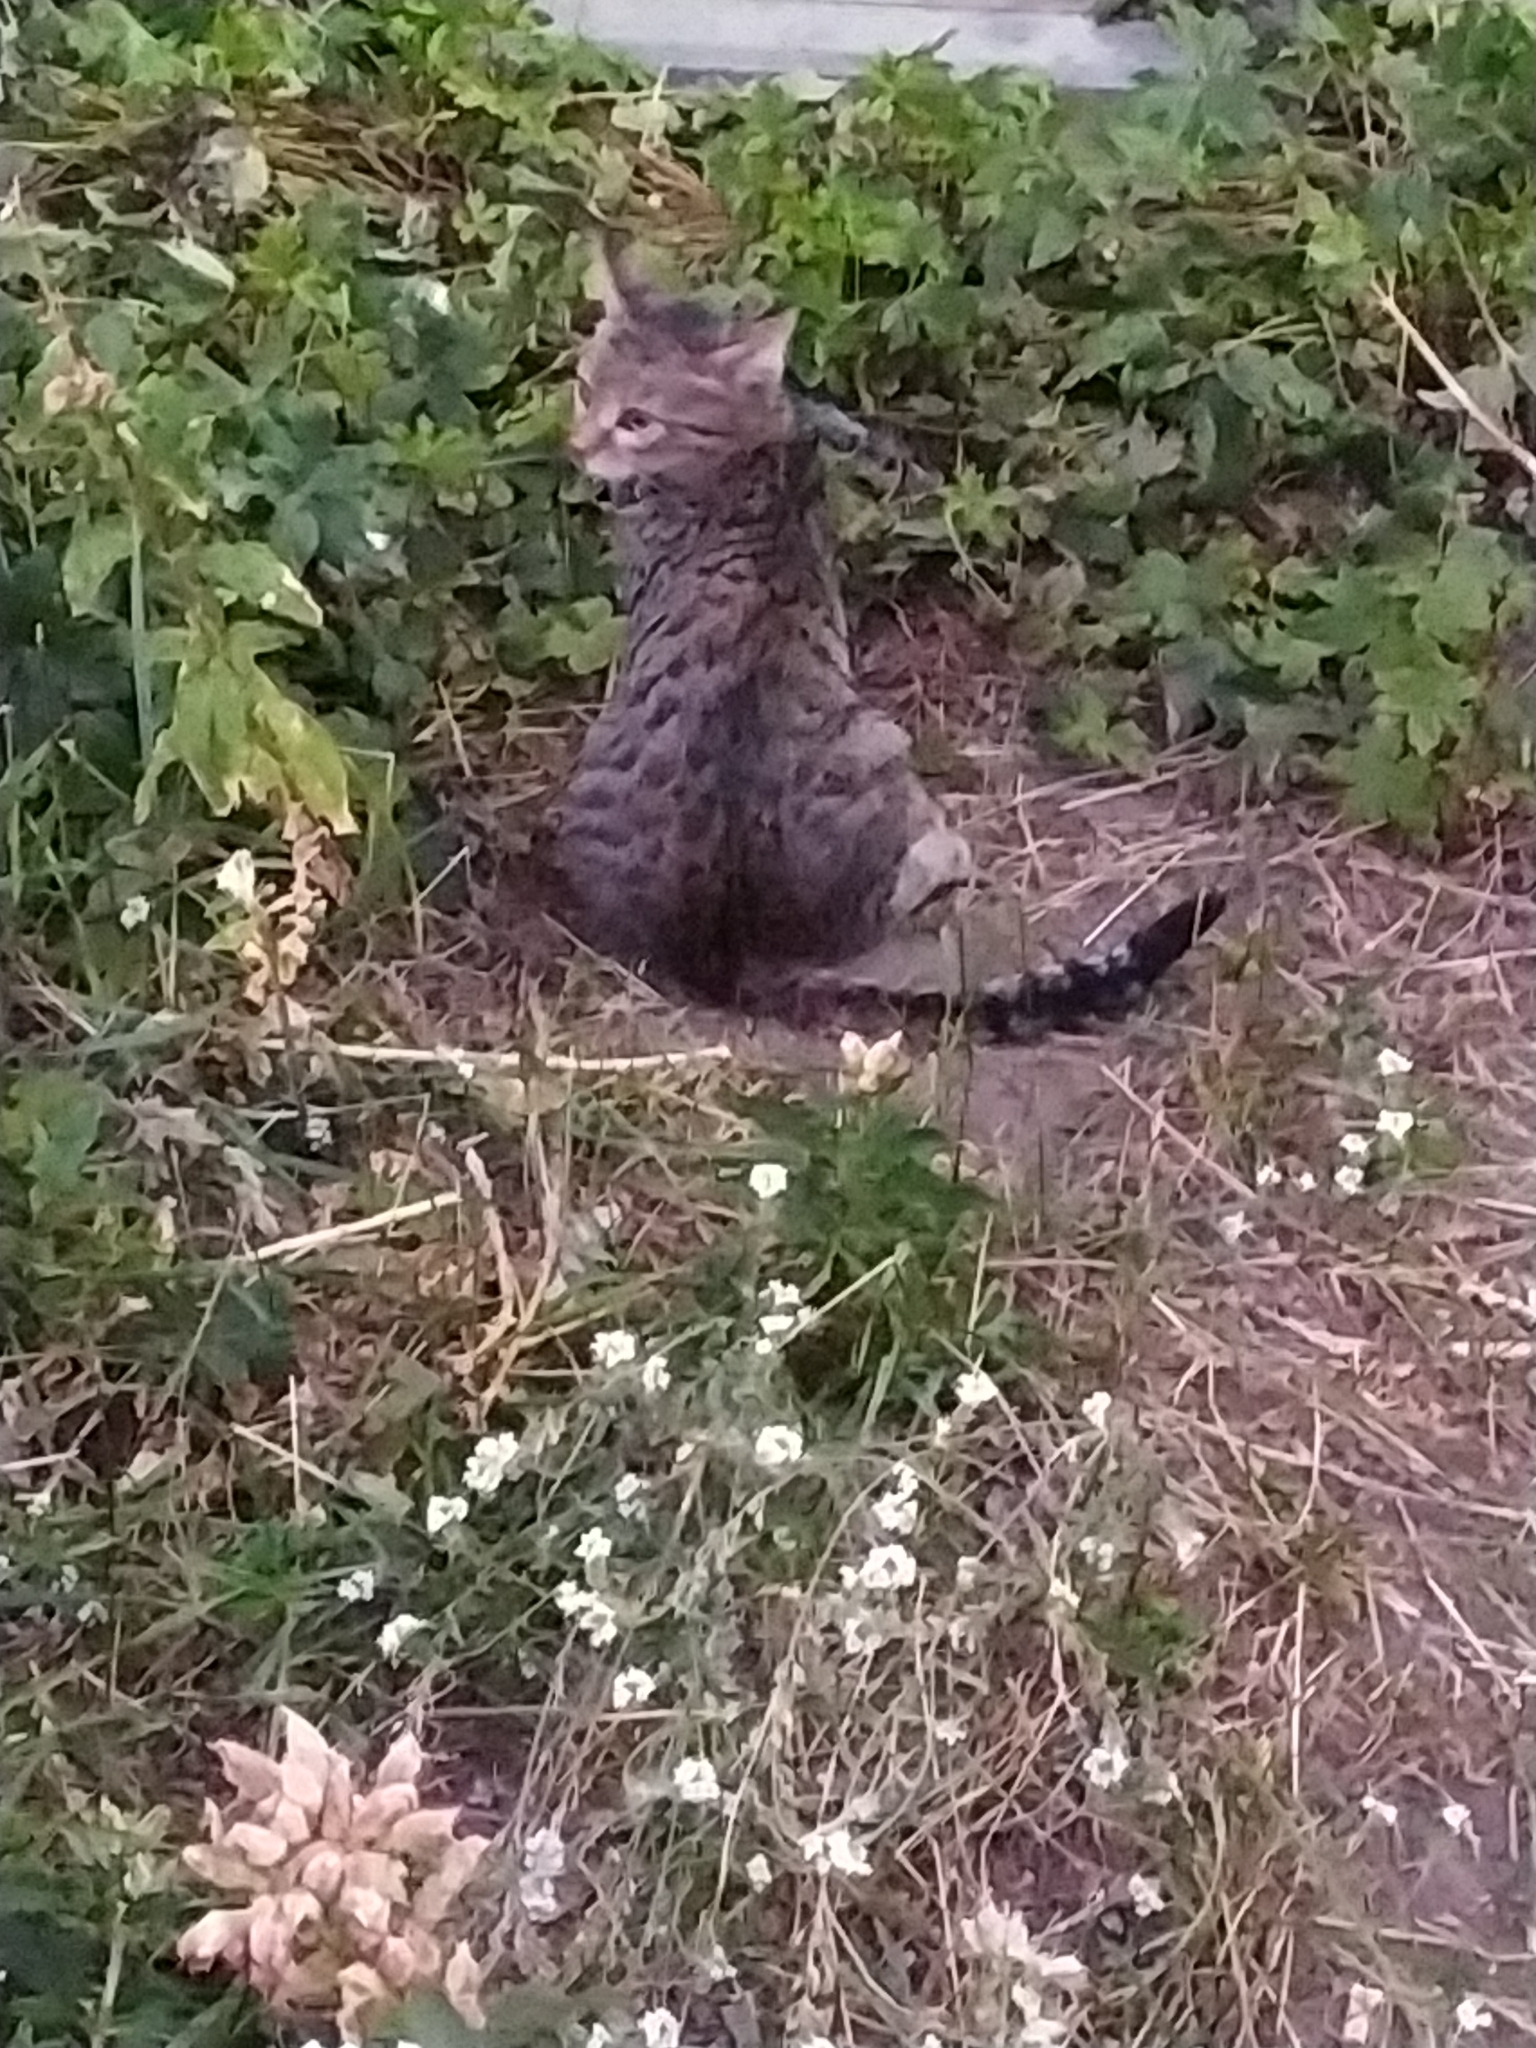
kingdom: Animalia
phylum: Chordata
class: Mammalia
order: Carnivora
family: Felidae
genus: Felis
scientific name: Felis catus
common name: Domestic cat
